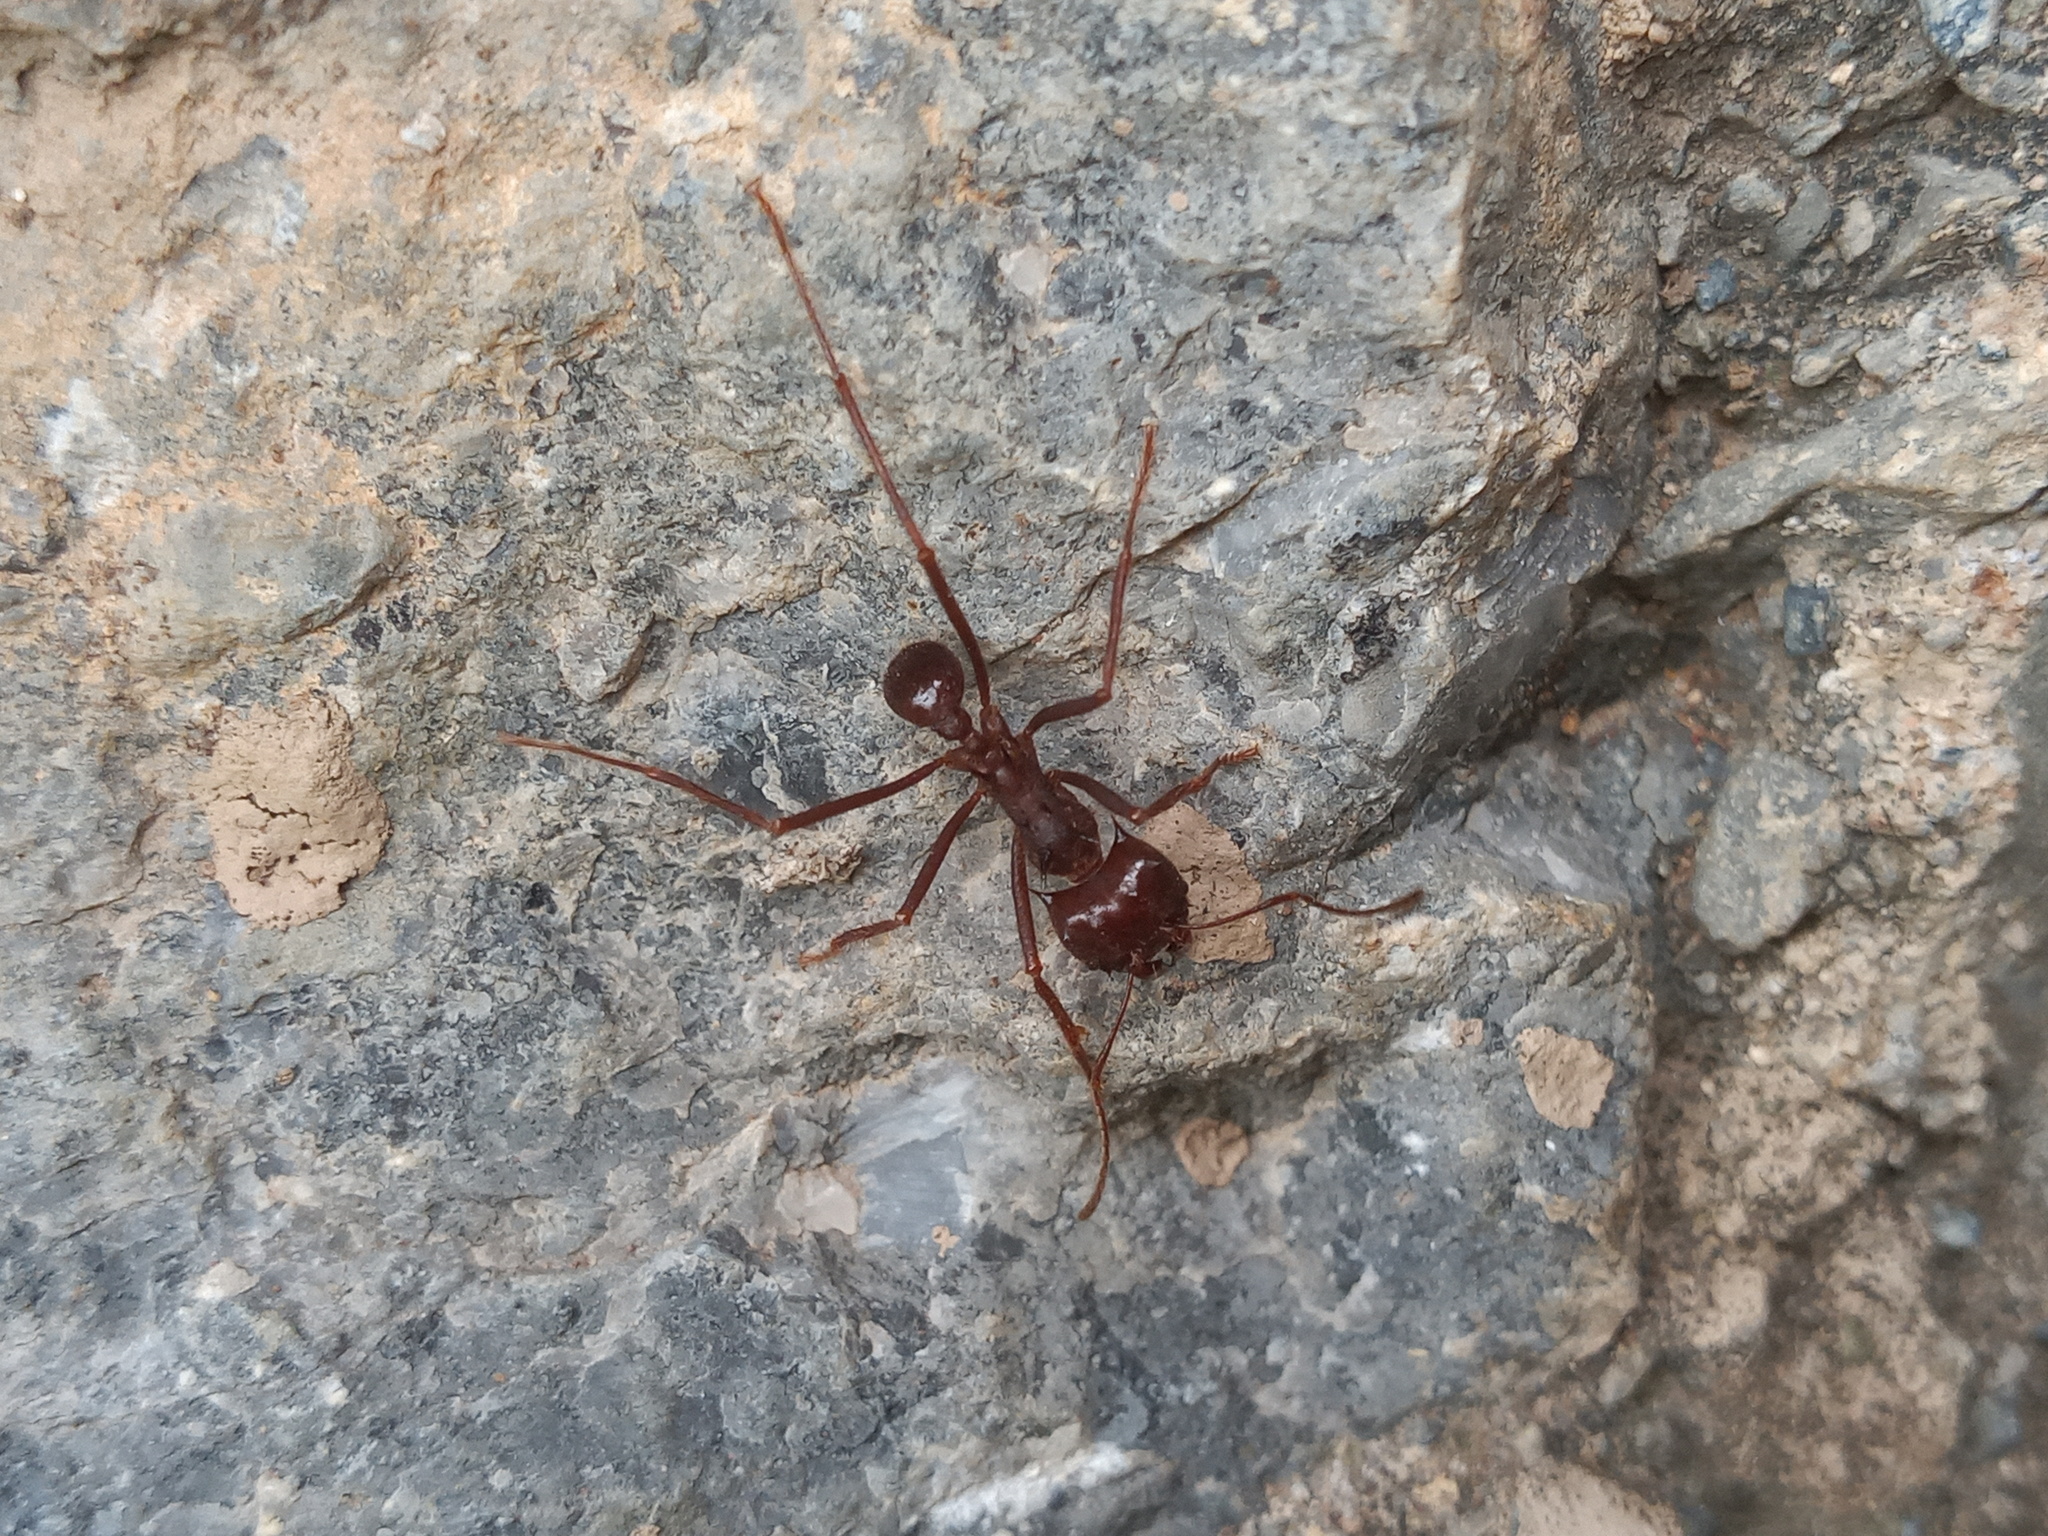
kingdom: Animalia
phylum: Arthropoda
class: Insecta
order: Hymenoptera
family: Formicidae
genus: Atta
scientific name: Atta mexicana
